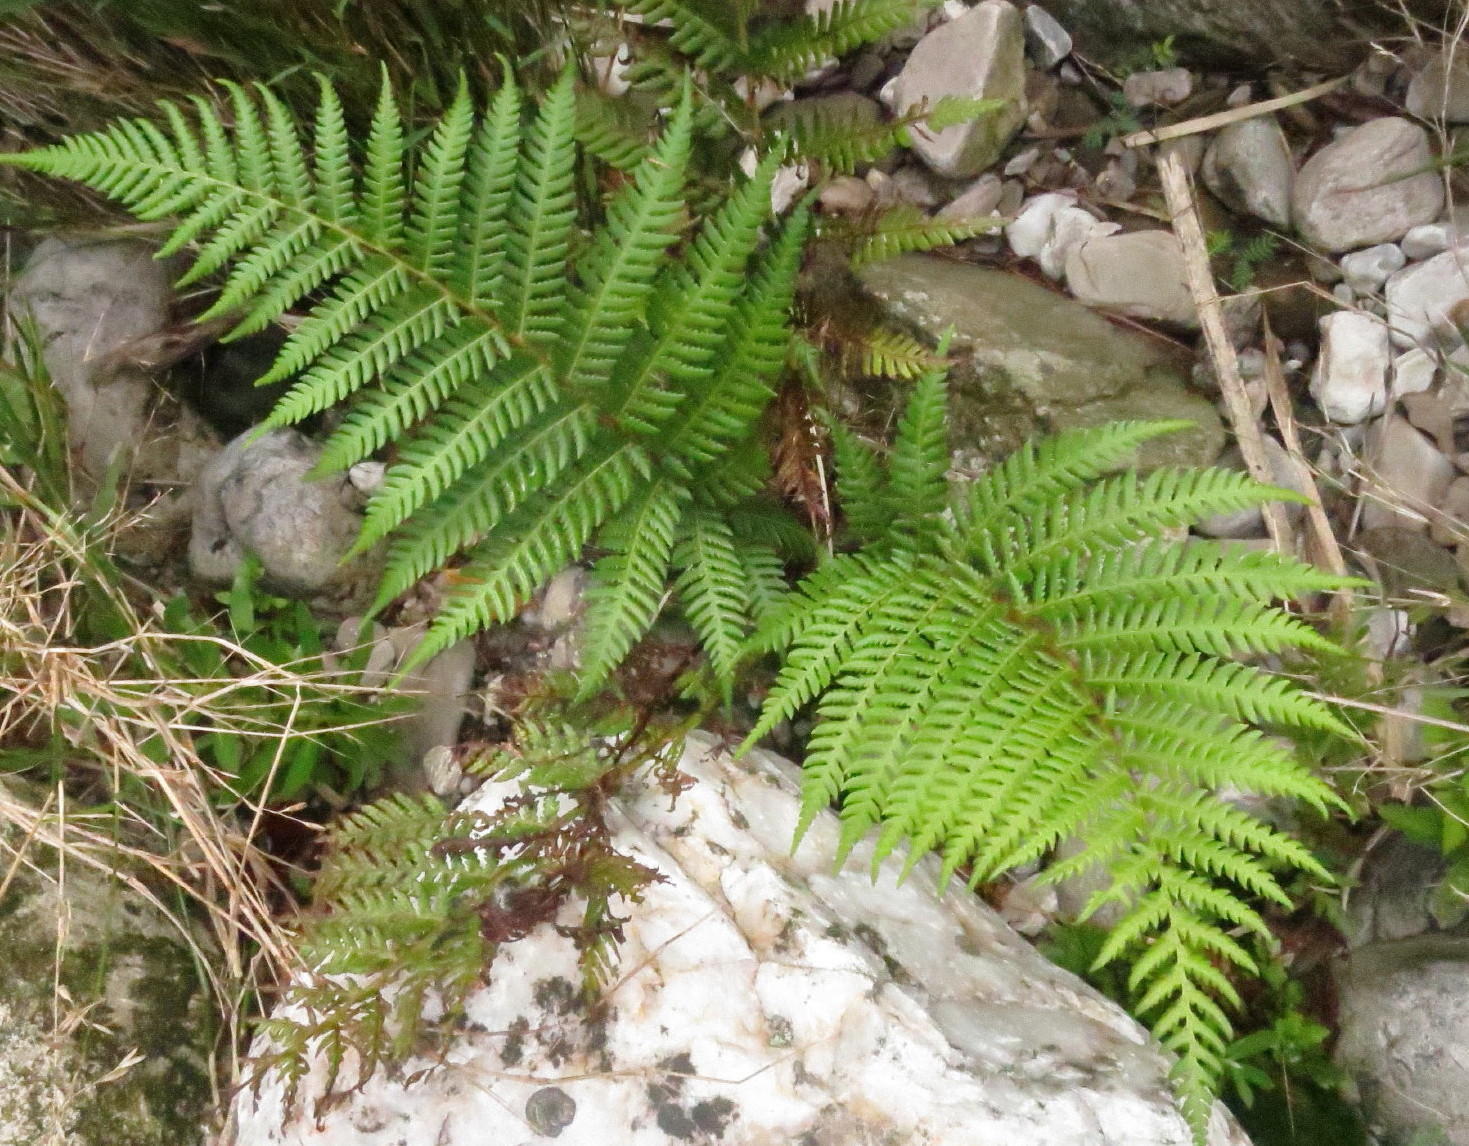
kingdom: Plantae
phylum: Tracheophyta
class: Polypodiopsida
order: Cyatheales
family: Cyatheaceae
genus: Gymnosphaera
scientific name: Gymnosphaera capensis
